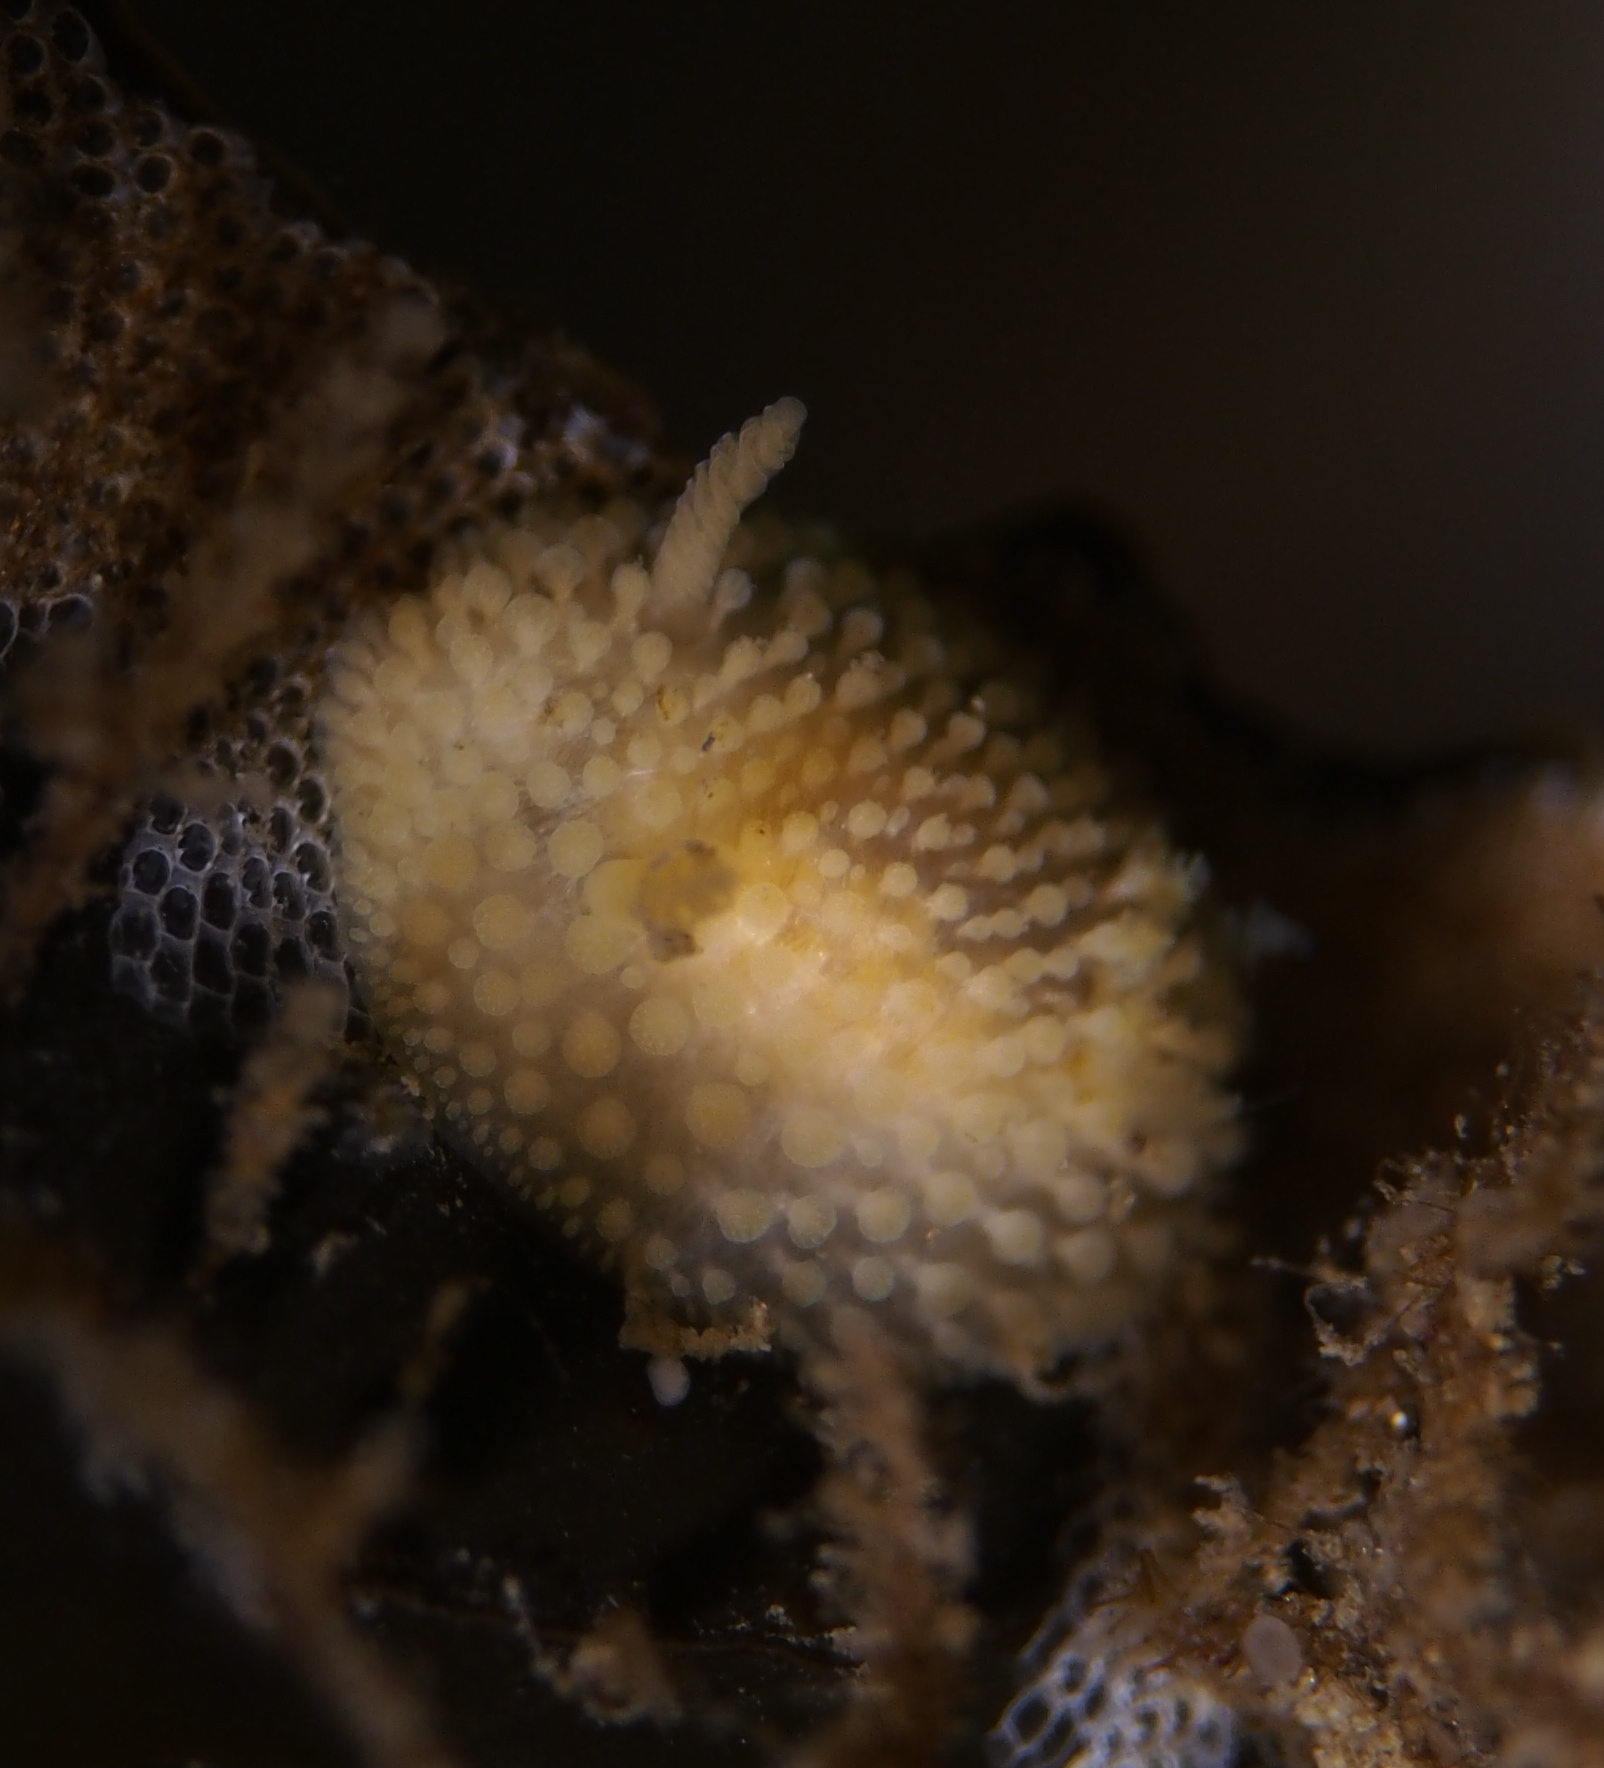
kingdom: Animalia
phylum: Mollusca
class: Gastropoda
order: Nudibranchia
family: Onchidorididae
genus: Onchidoris
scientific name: Onchidoris muricata
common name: Rough doris
